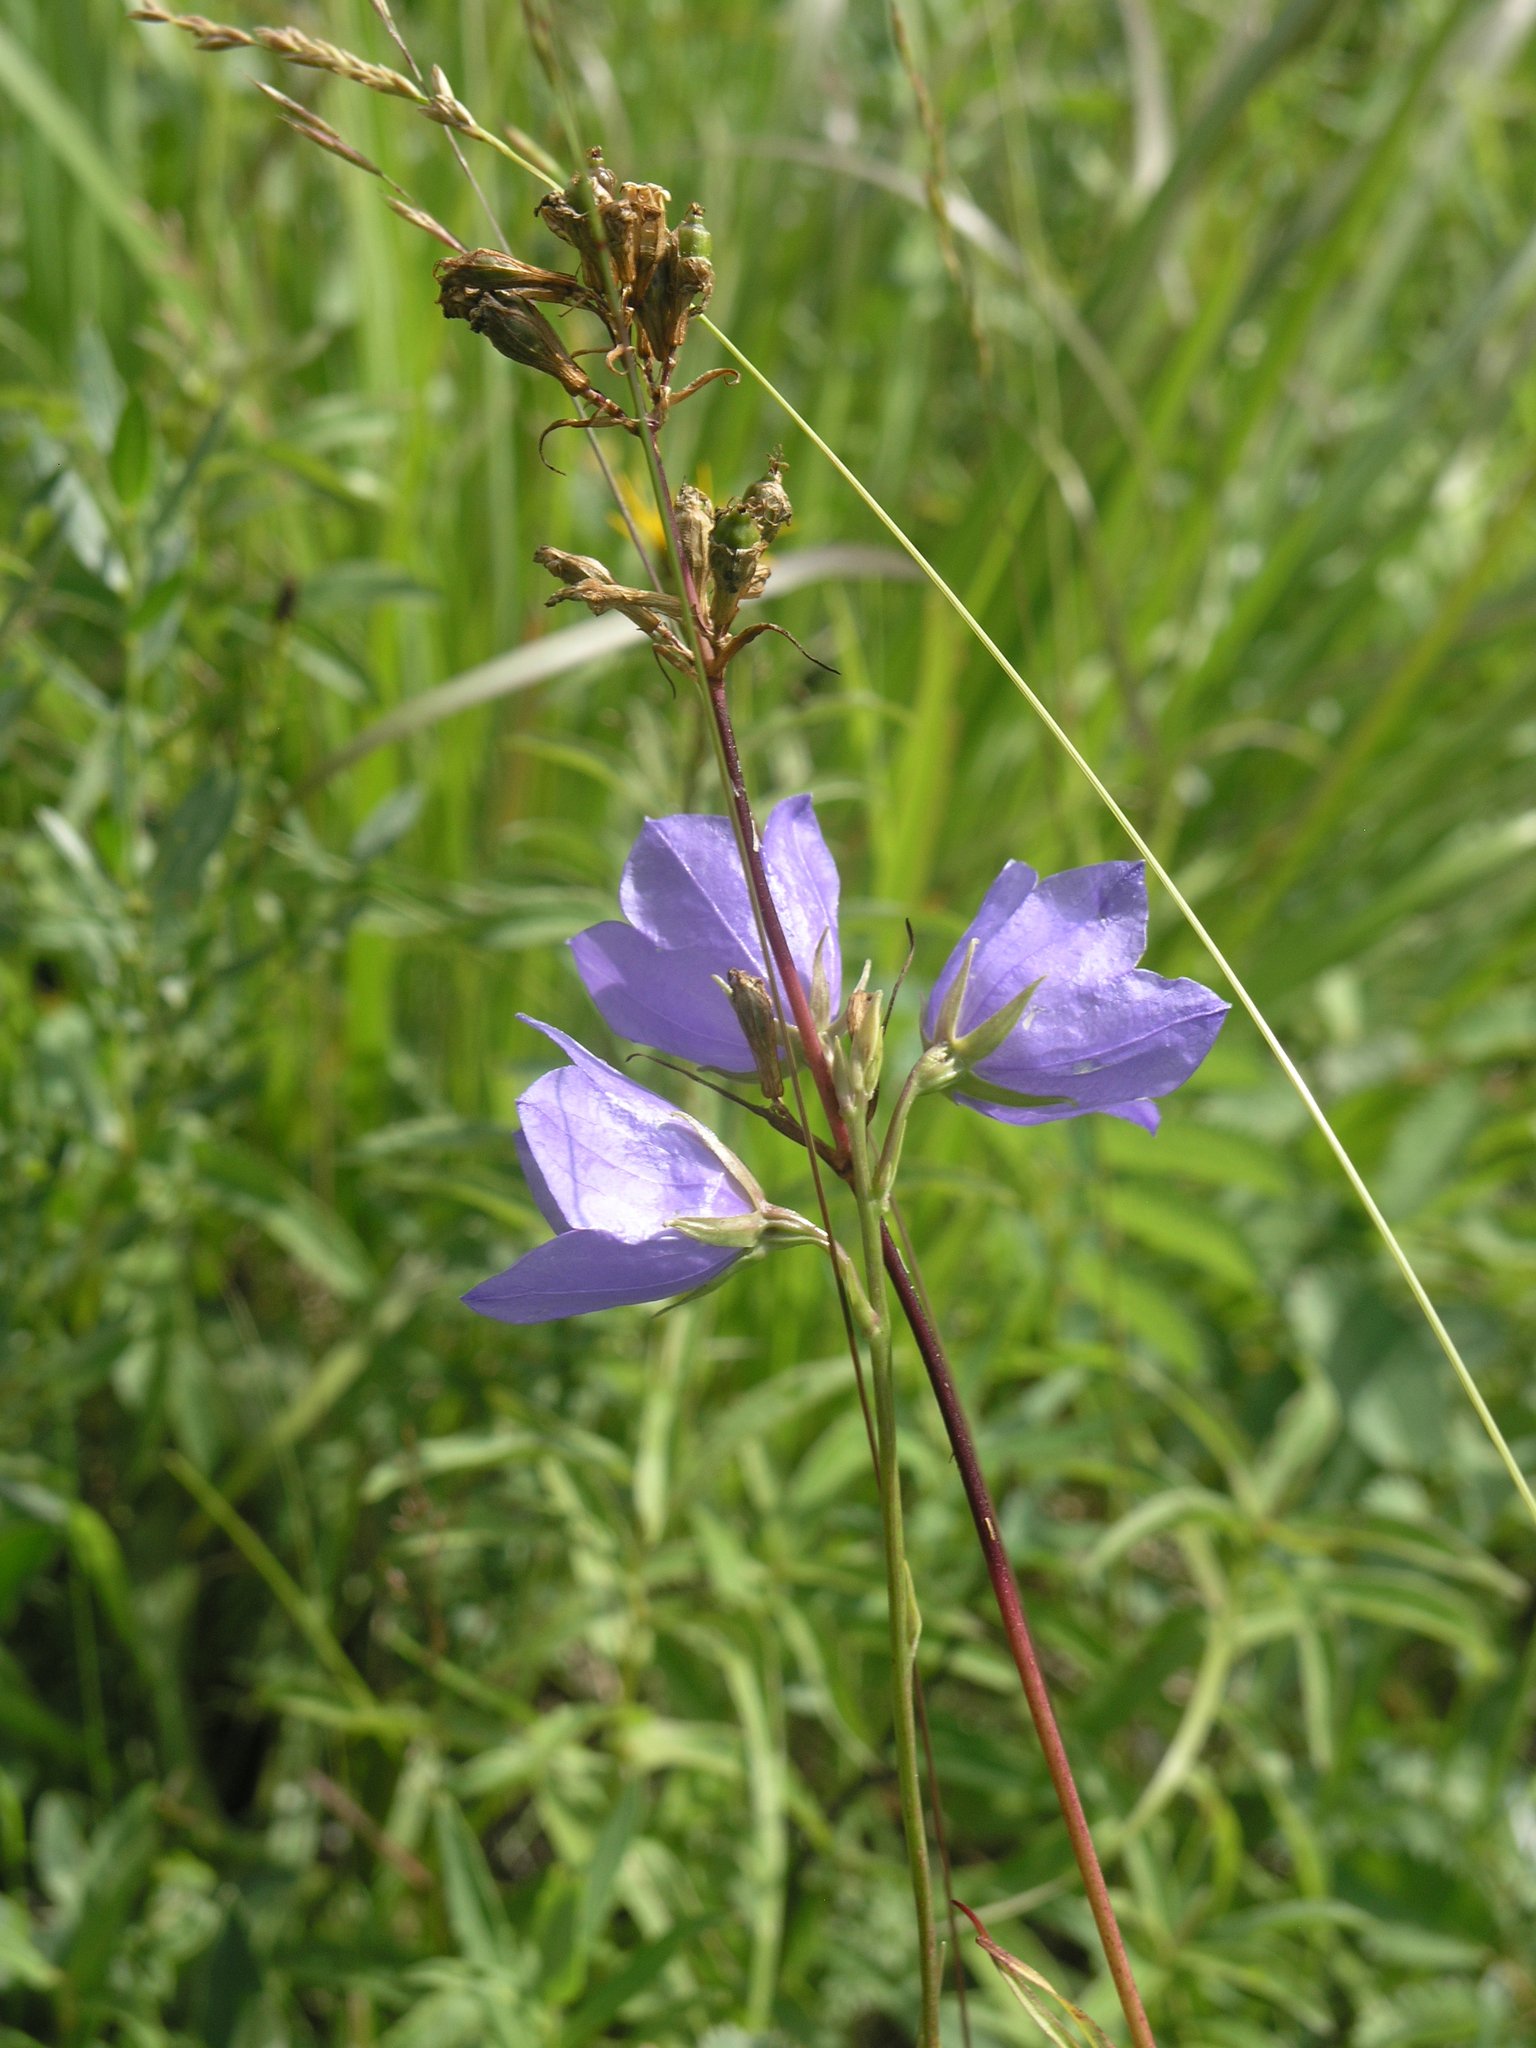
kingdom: Plantae
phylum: Tracheophyta
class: Magnoliopsida
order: Asterales
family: Campanulaceae
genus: Campanula
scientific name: Campanula persicifolia
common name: Peach-leaved bellflower
